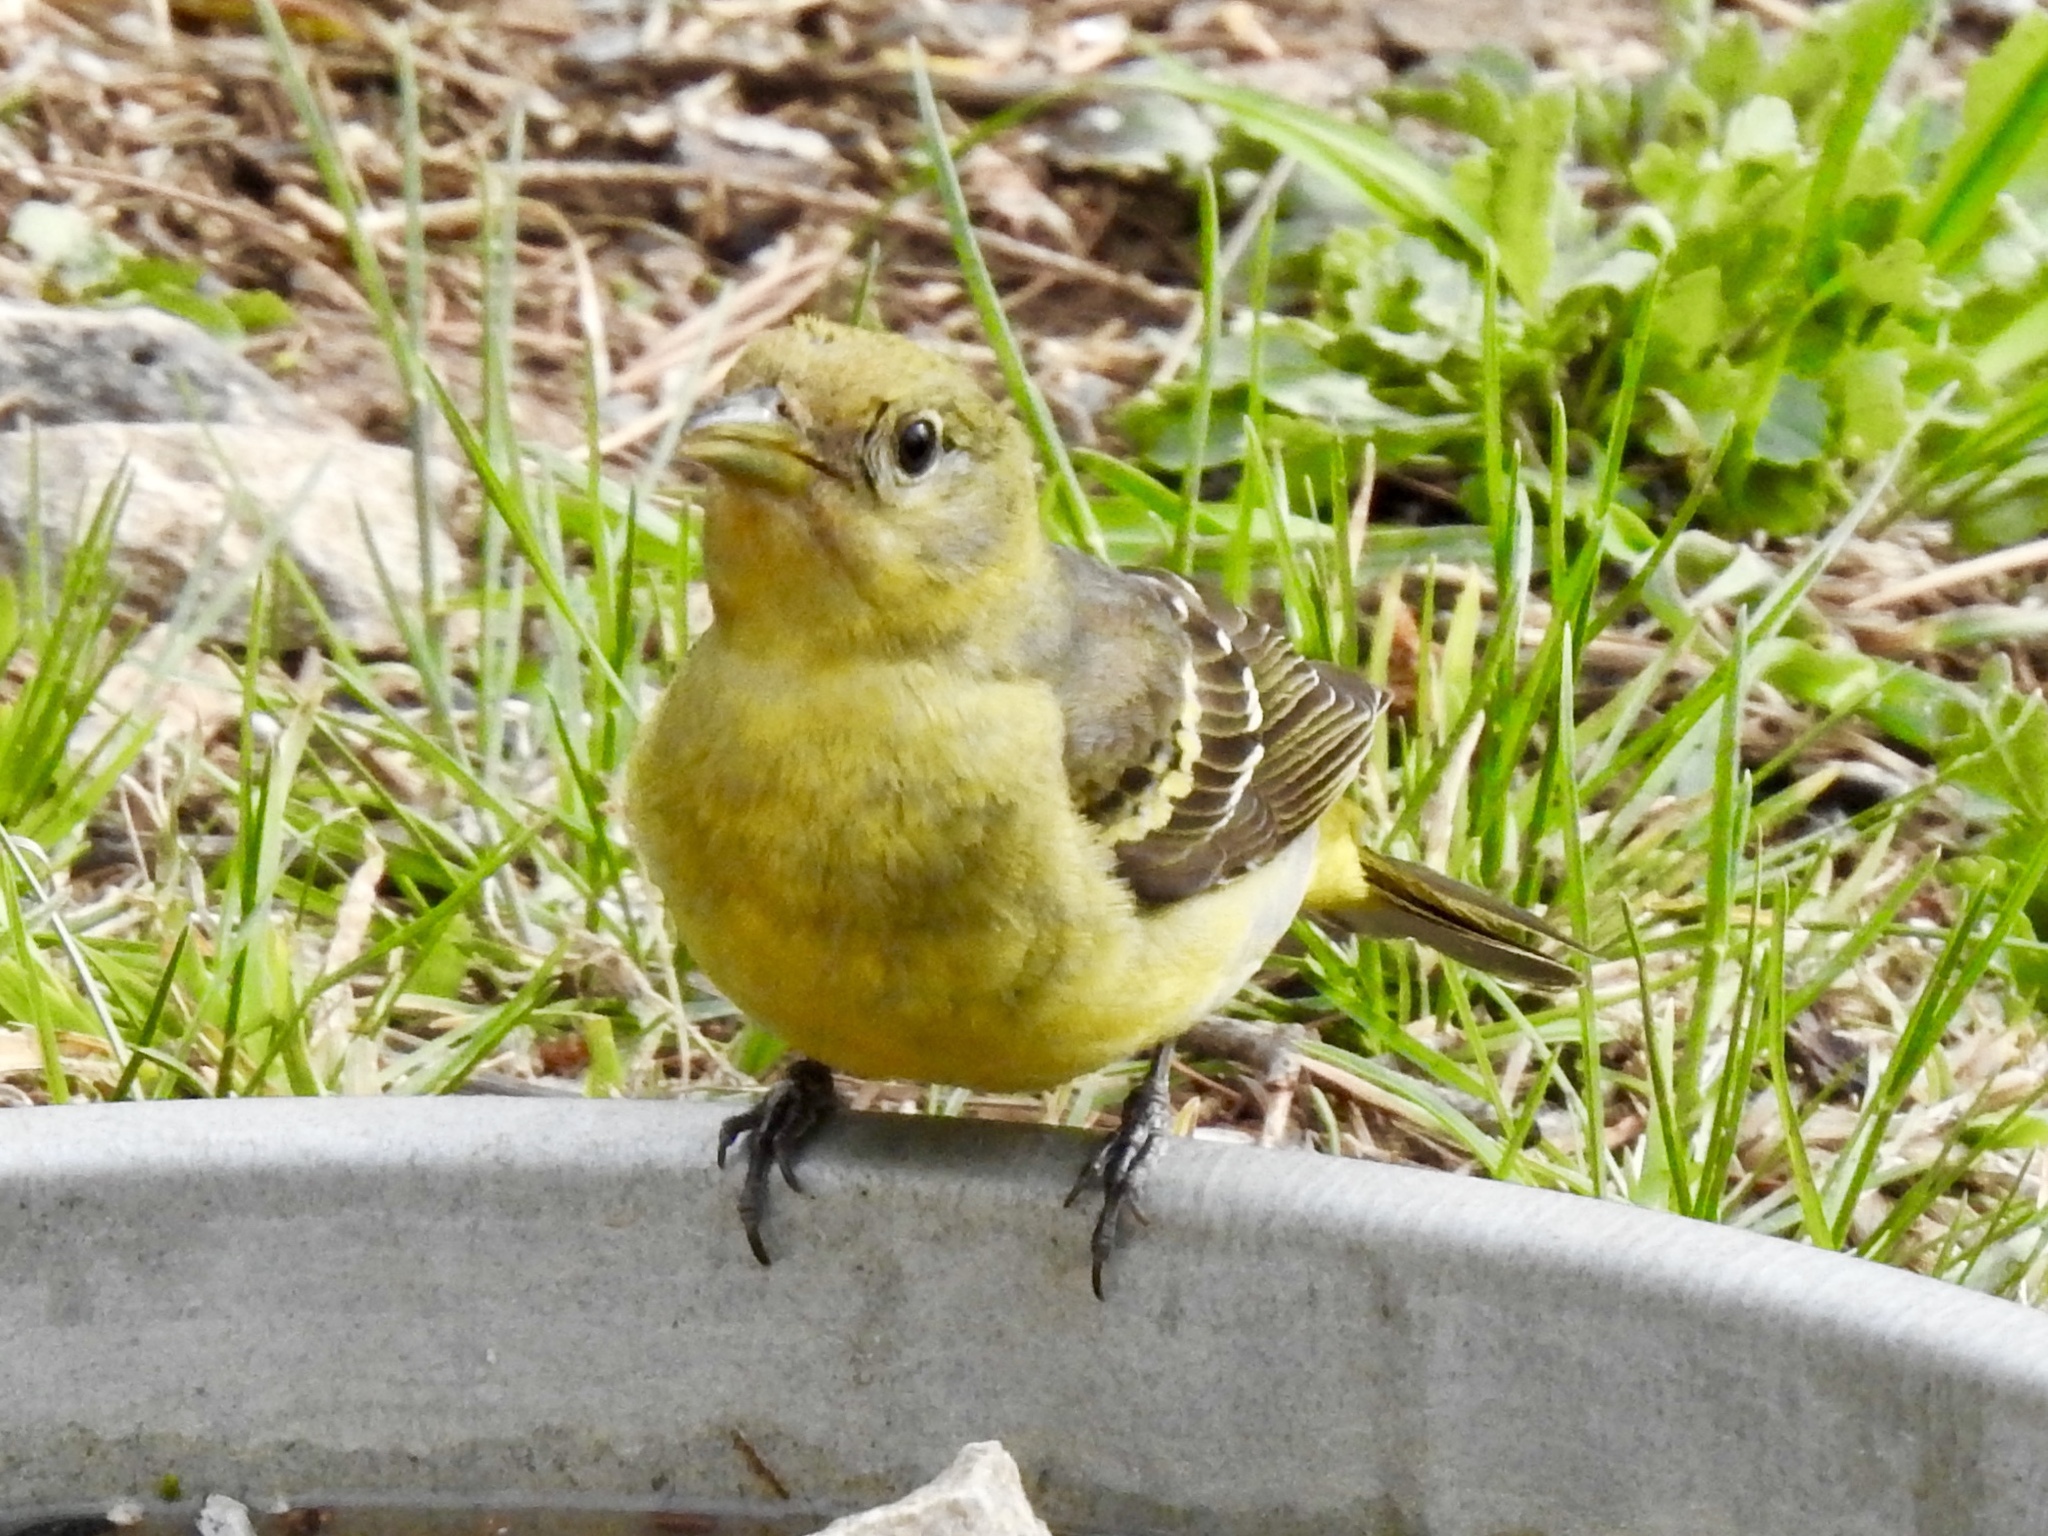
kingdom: Animalia
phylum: Chordata
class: Aves
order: Passeriformes
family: Cardinalidae
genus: Piranga
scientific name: Piranga ludoviciana
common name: Western tanager
